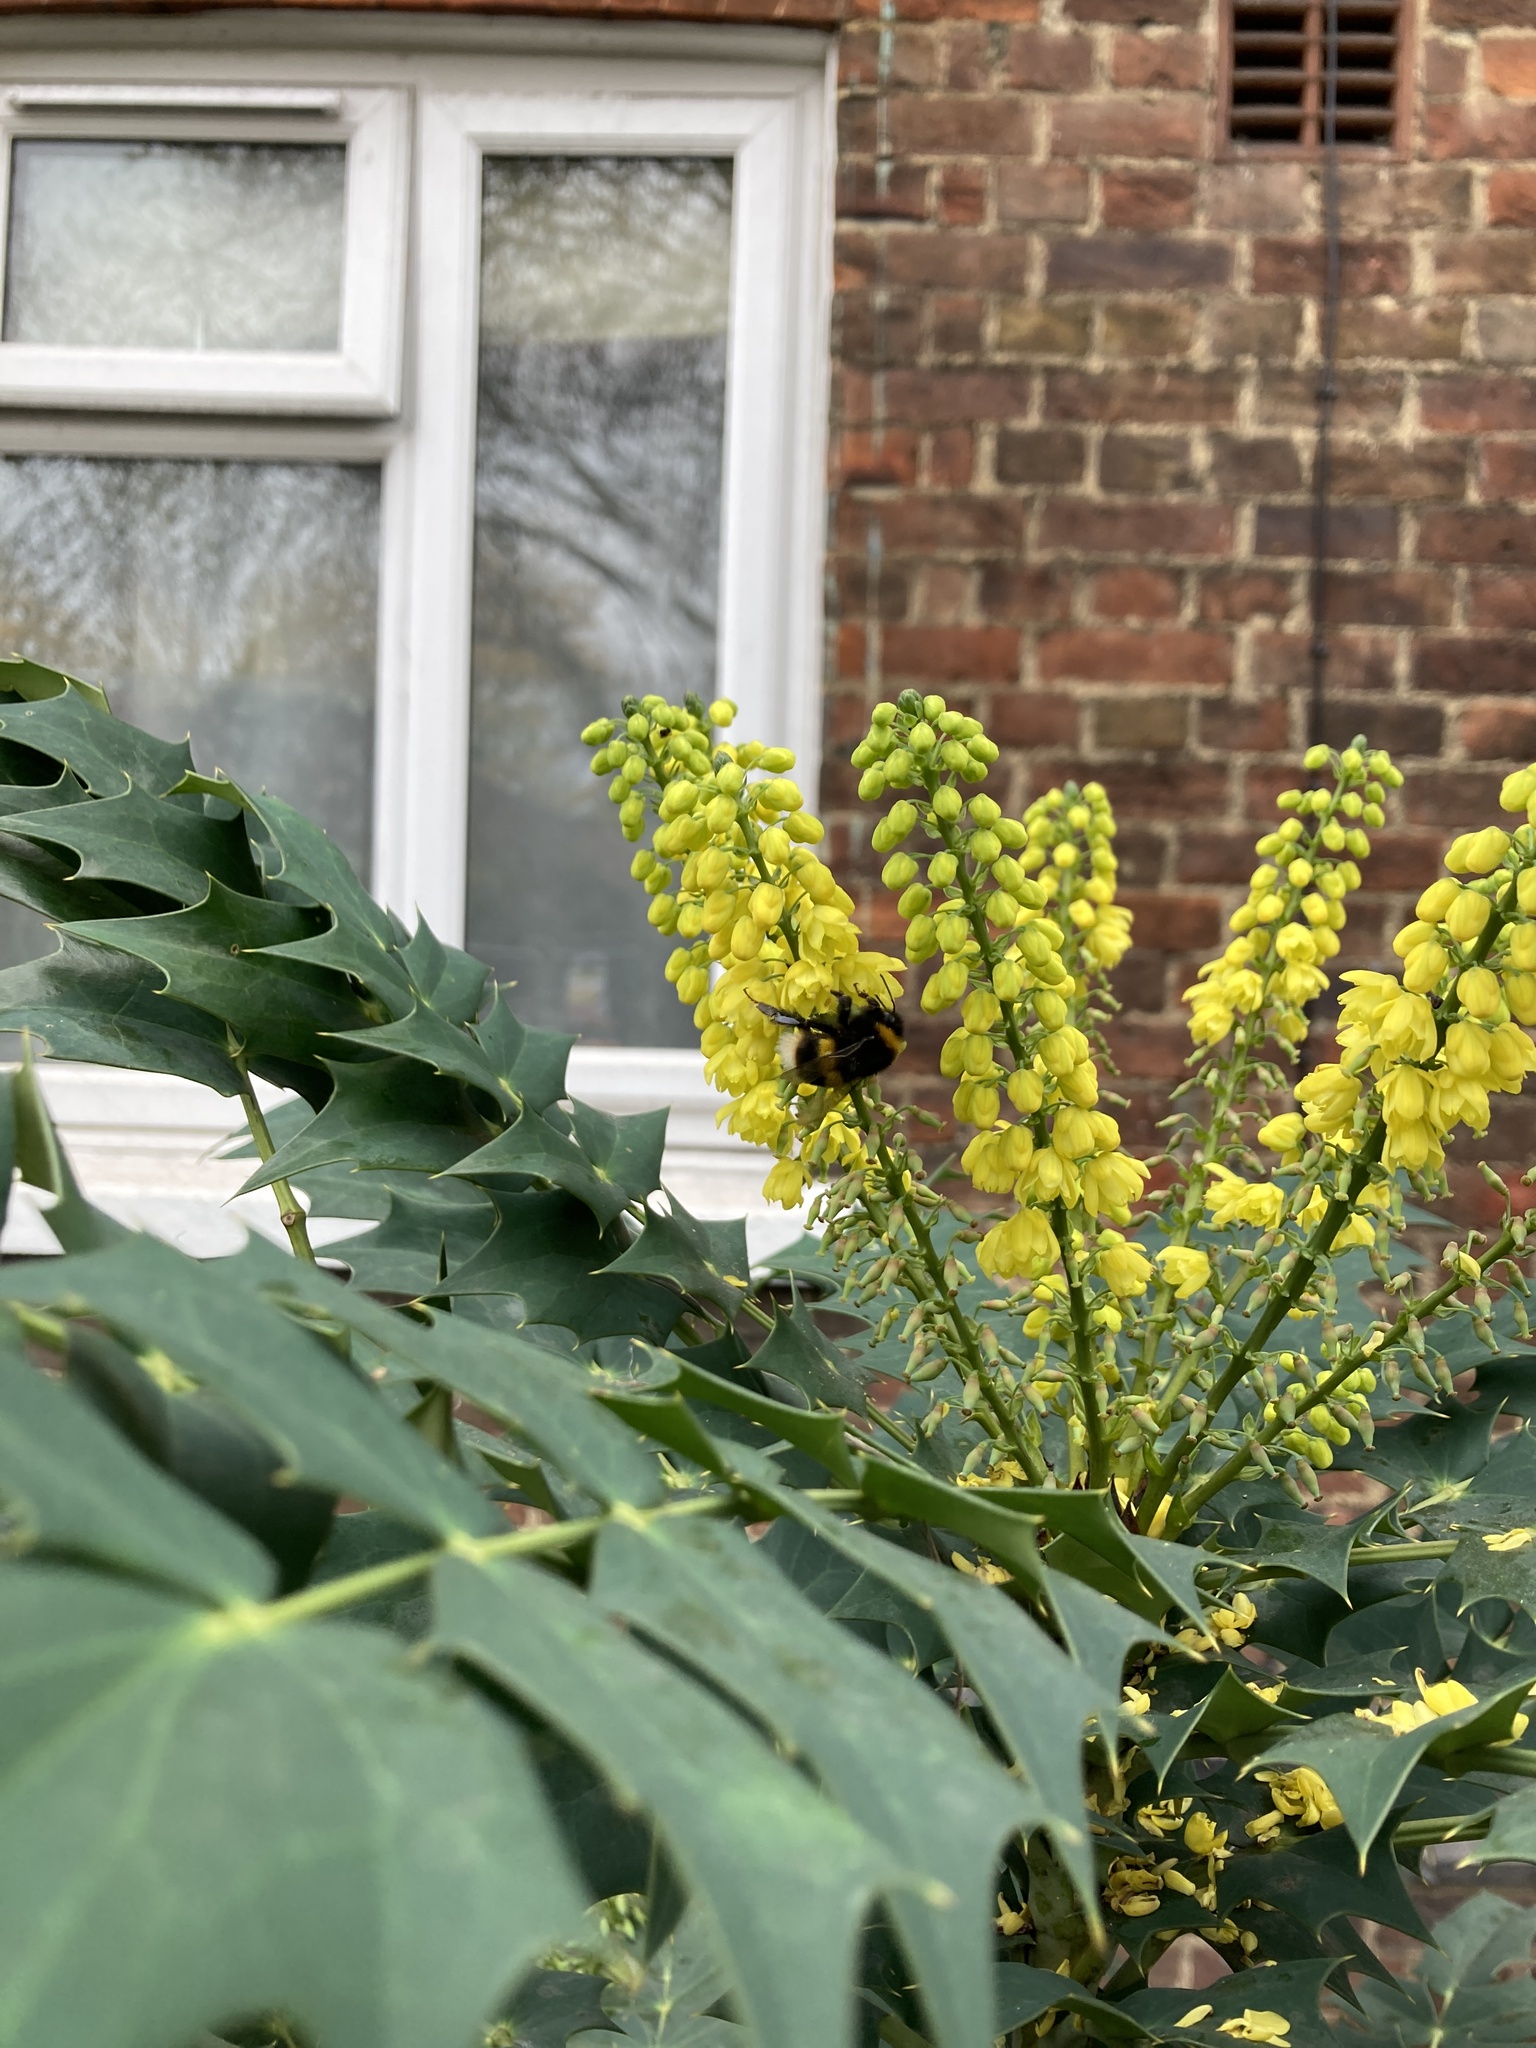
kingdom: Animalia
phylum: Arthropoda
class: Insecta
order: Hymenoptera
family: Apidae
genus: Bombus
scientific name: Bombus terrestris
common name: Buff-tailed bumblebee
